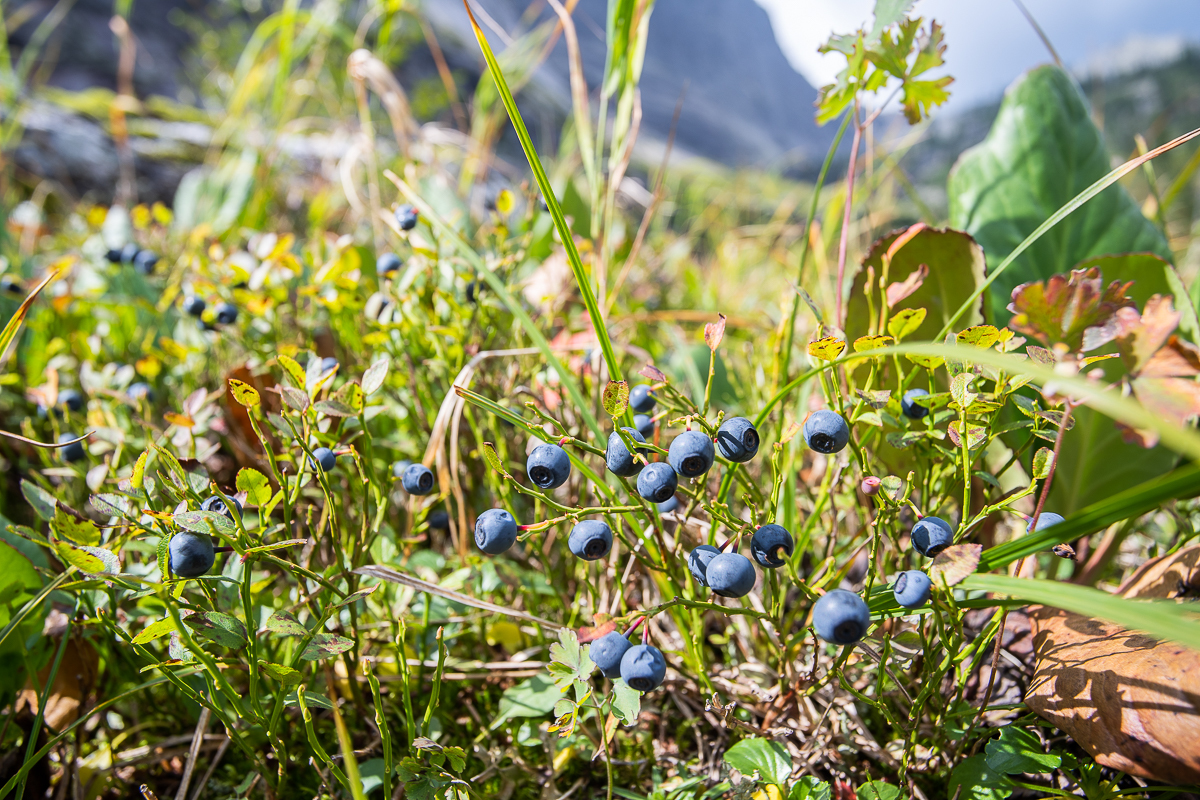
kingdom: Plantae
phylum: Tracheophyta
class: Magnoliopsida
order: Ericales
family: Ericaceae
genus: Vaccinium
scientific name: Vaccinium myrtillus
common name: Bilberry
